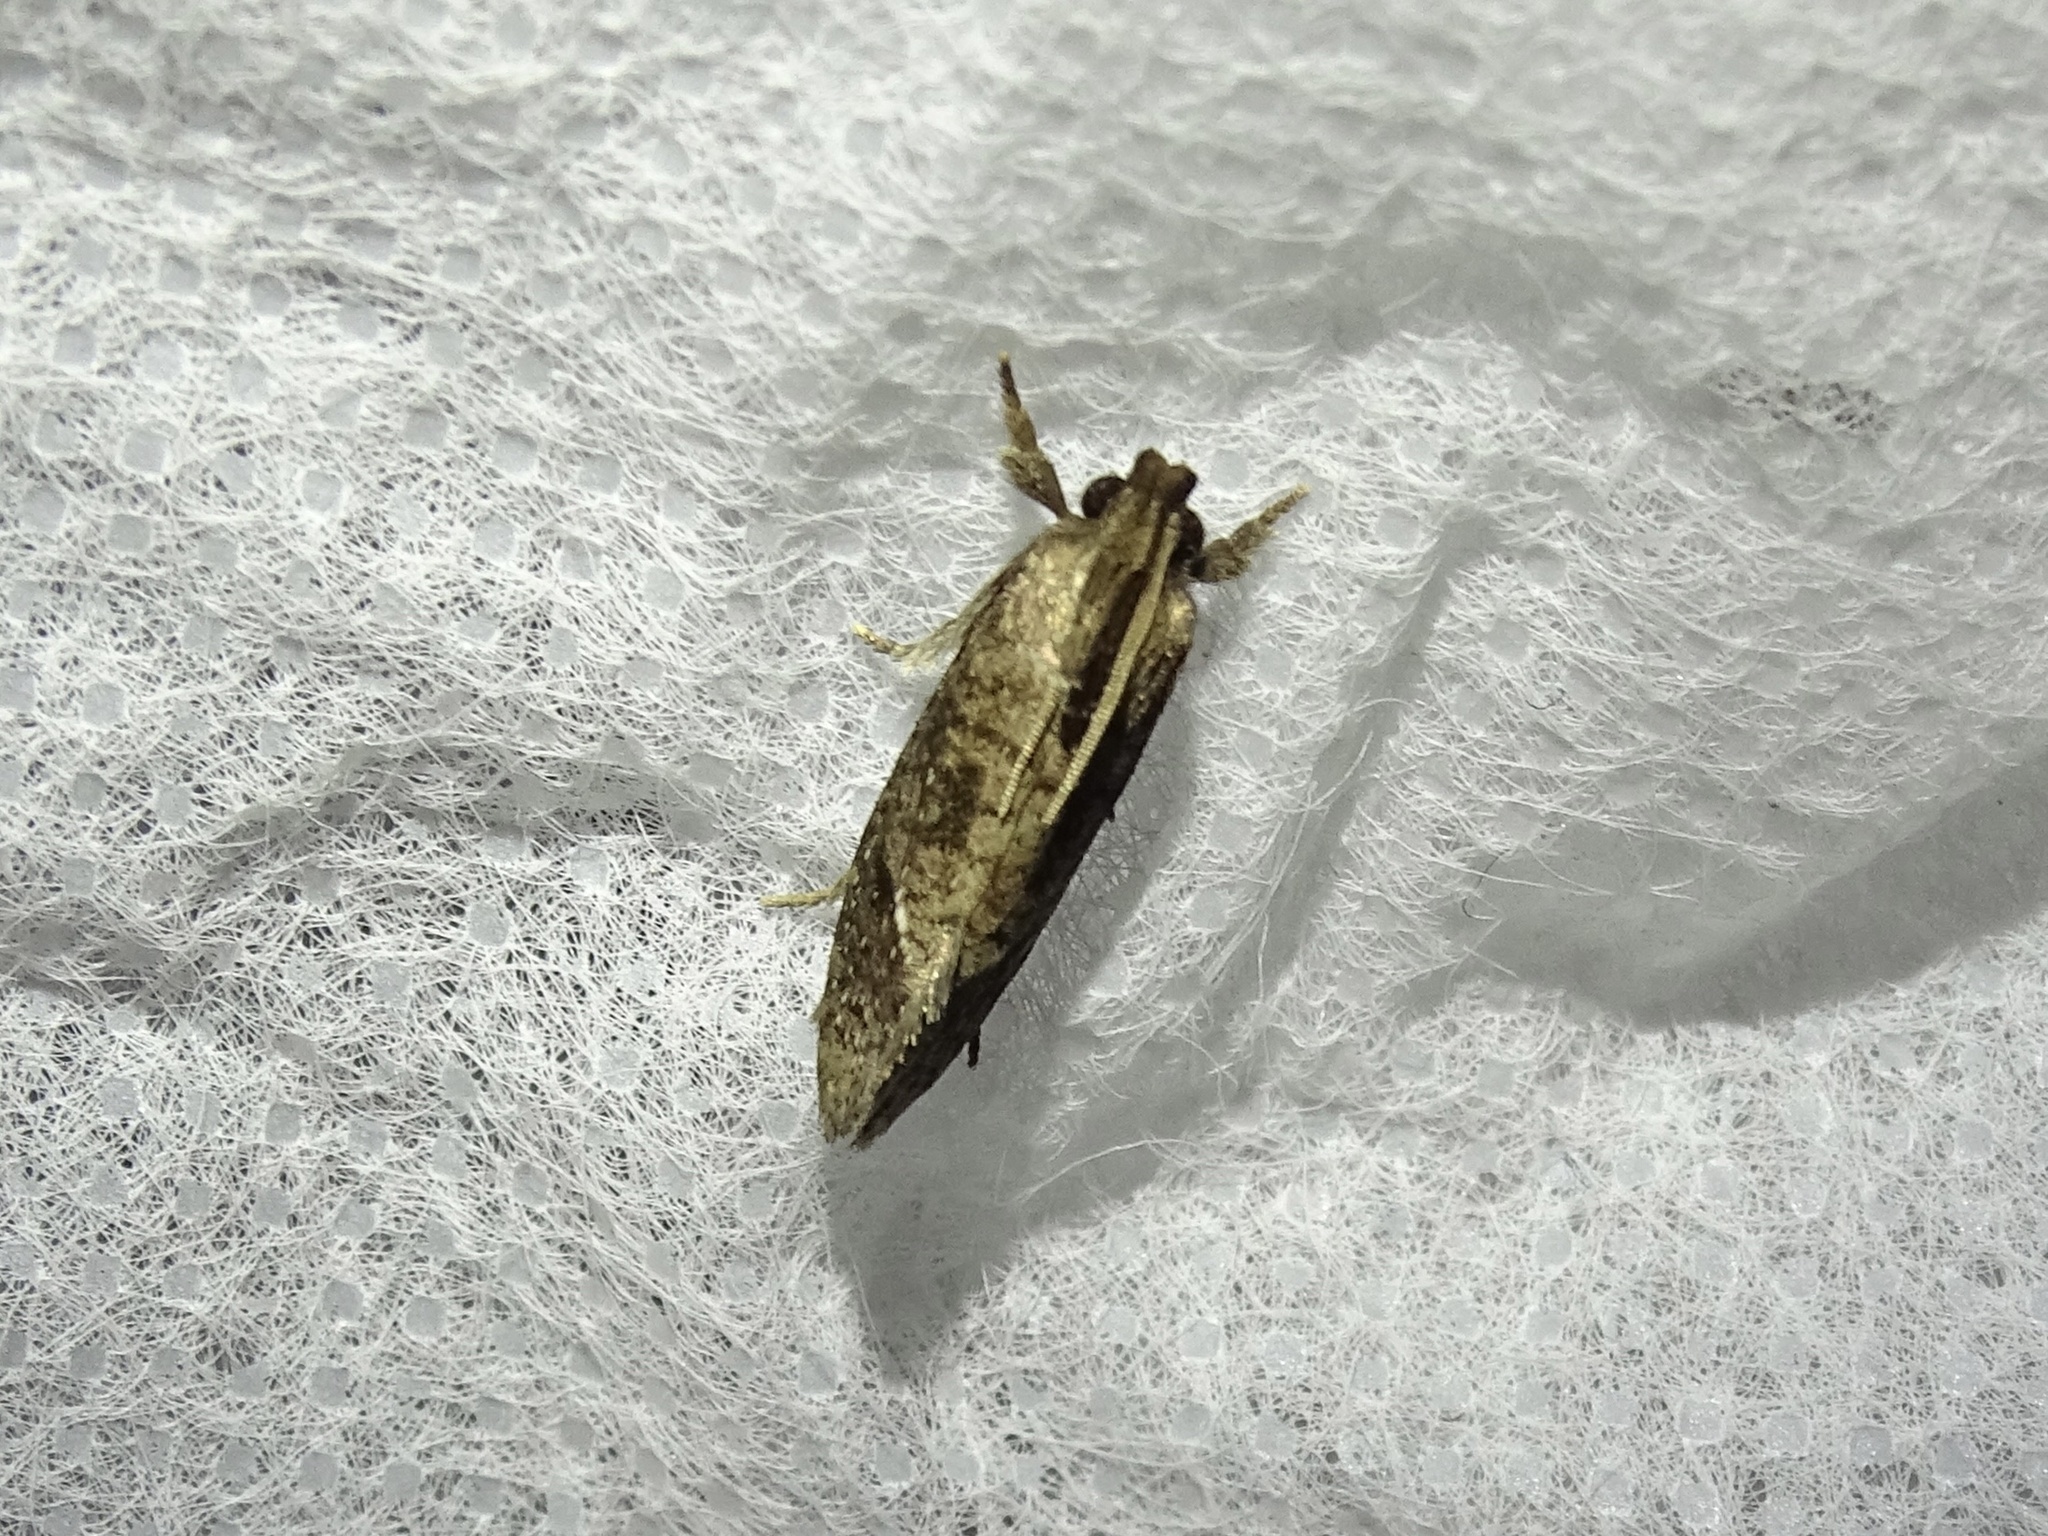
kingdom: Animalia
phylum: Arthropoda
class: Insecta
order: Lepidoptera
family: Tineidae
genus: Acrolophus
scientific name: Acrolophus texanella
